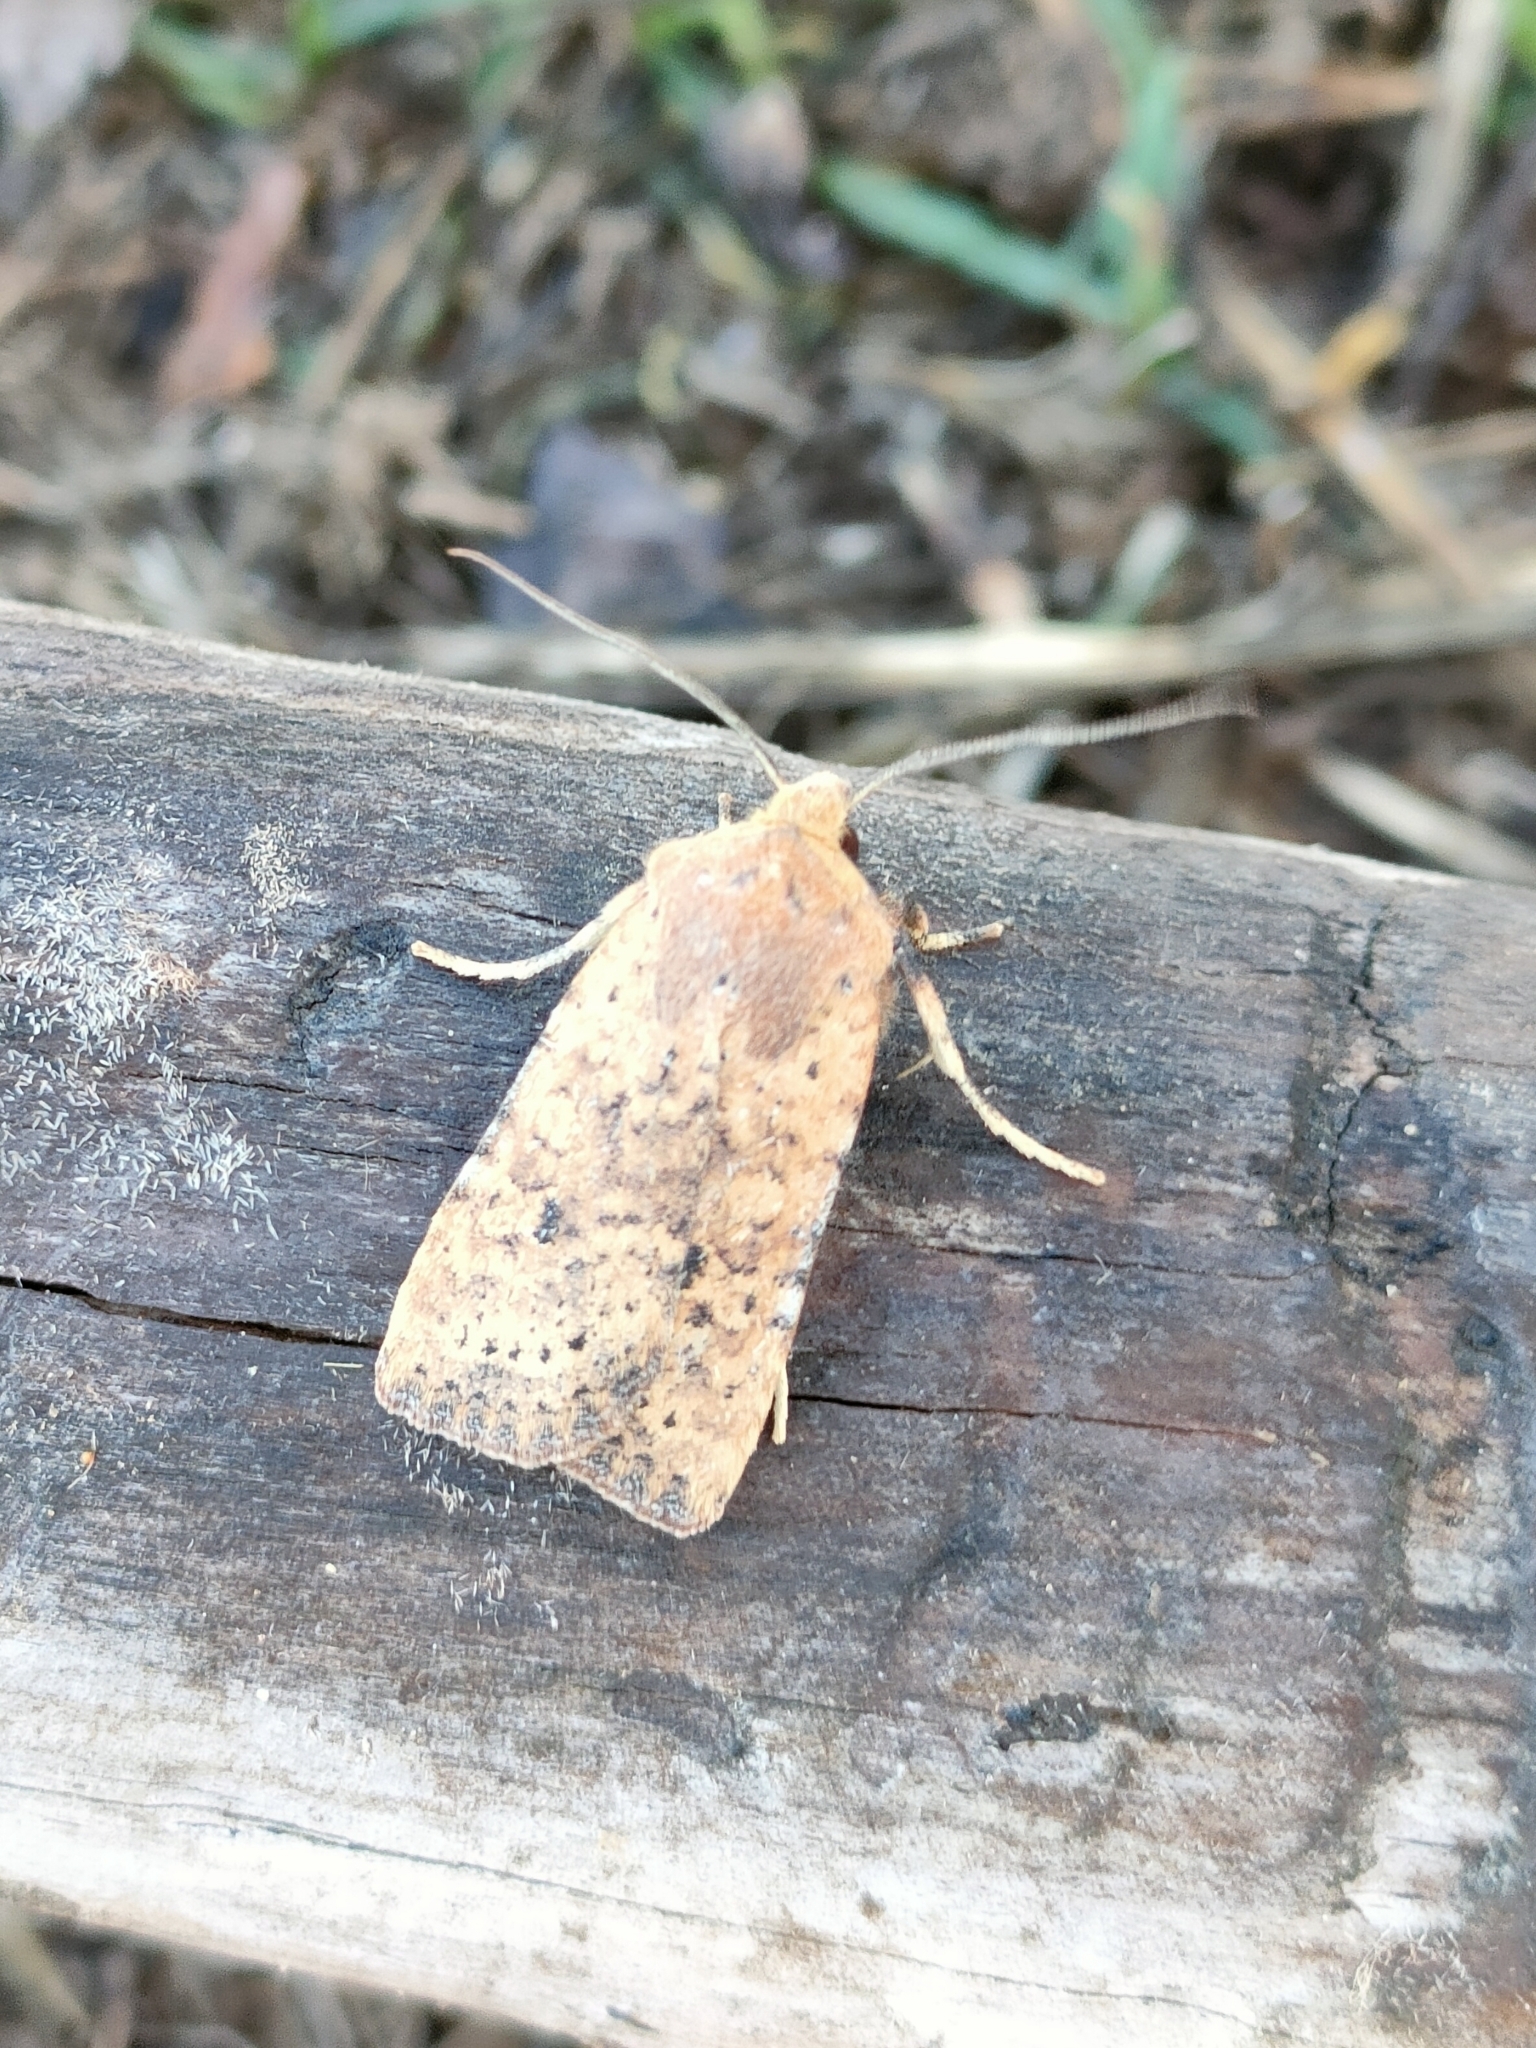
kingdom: Animalia
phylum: Arthropoda
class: Insecta
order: Lepidoptera
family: Noctuidae
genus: Conistra
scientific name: Conistra rubiginea
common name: Dotted chestnut
